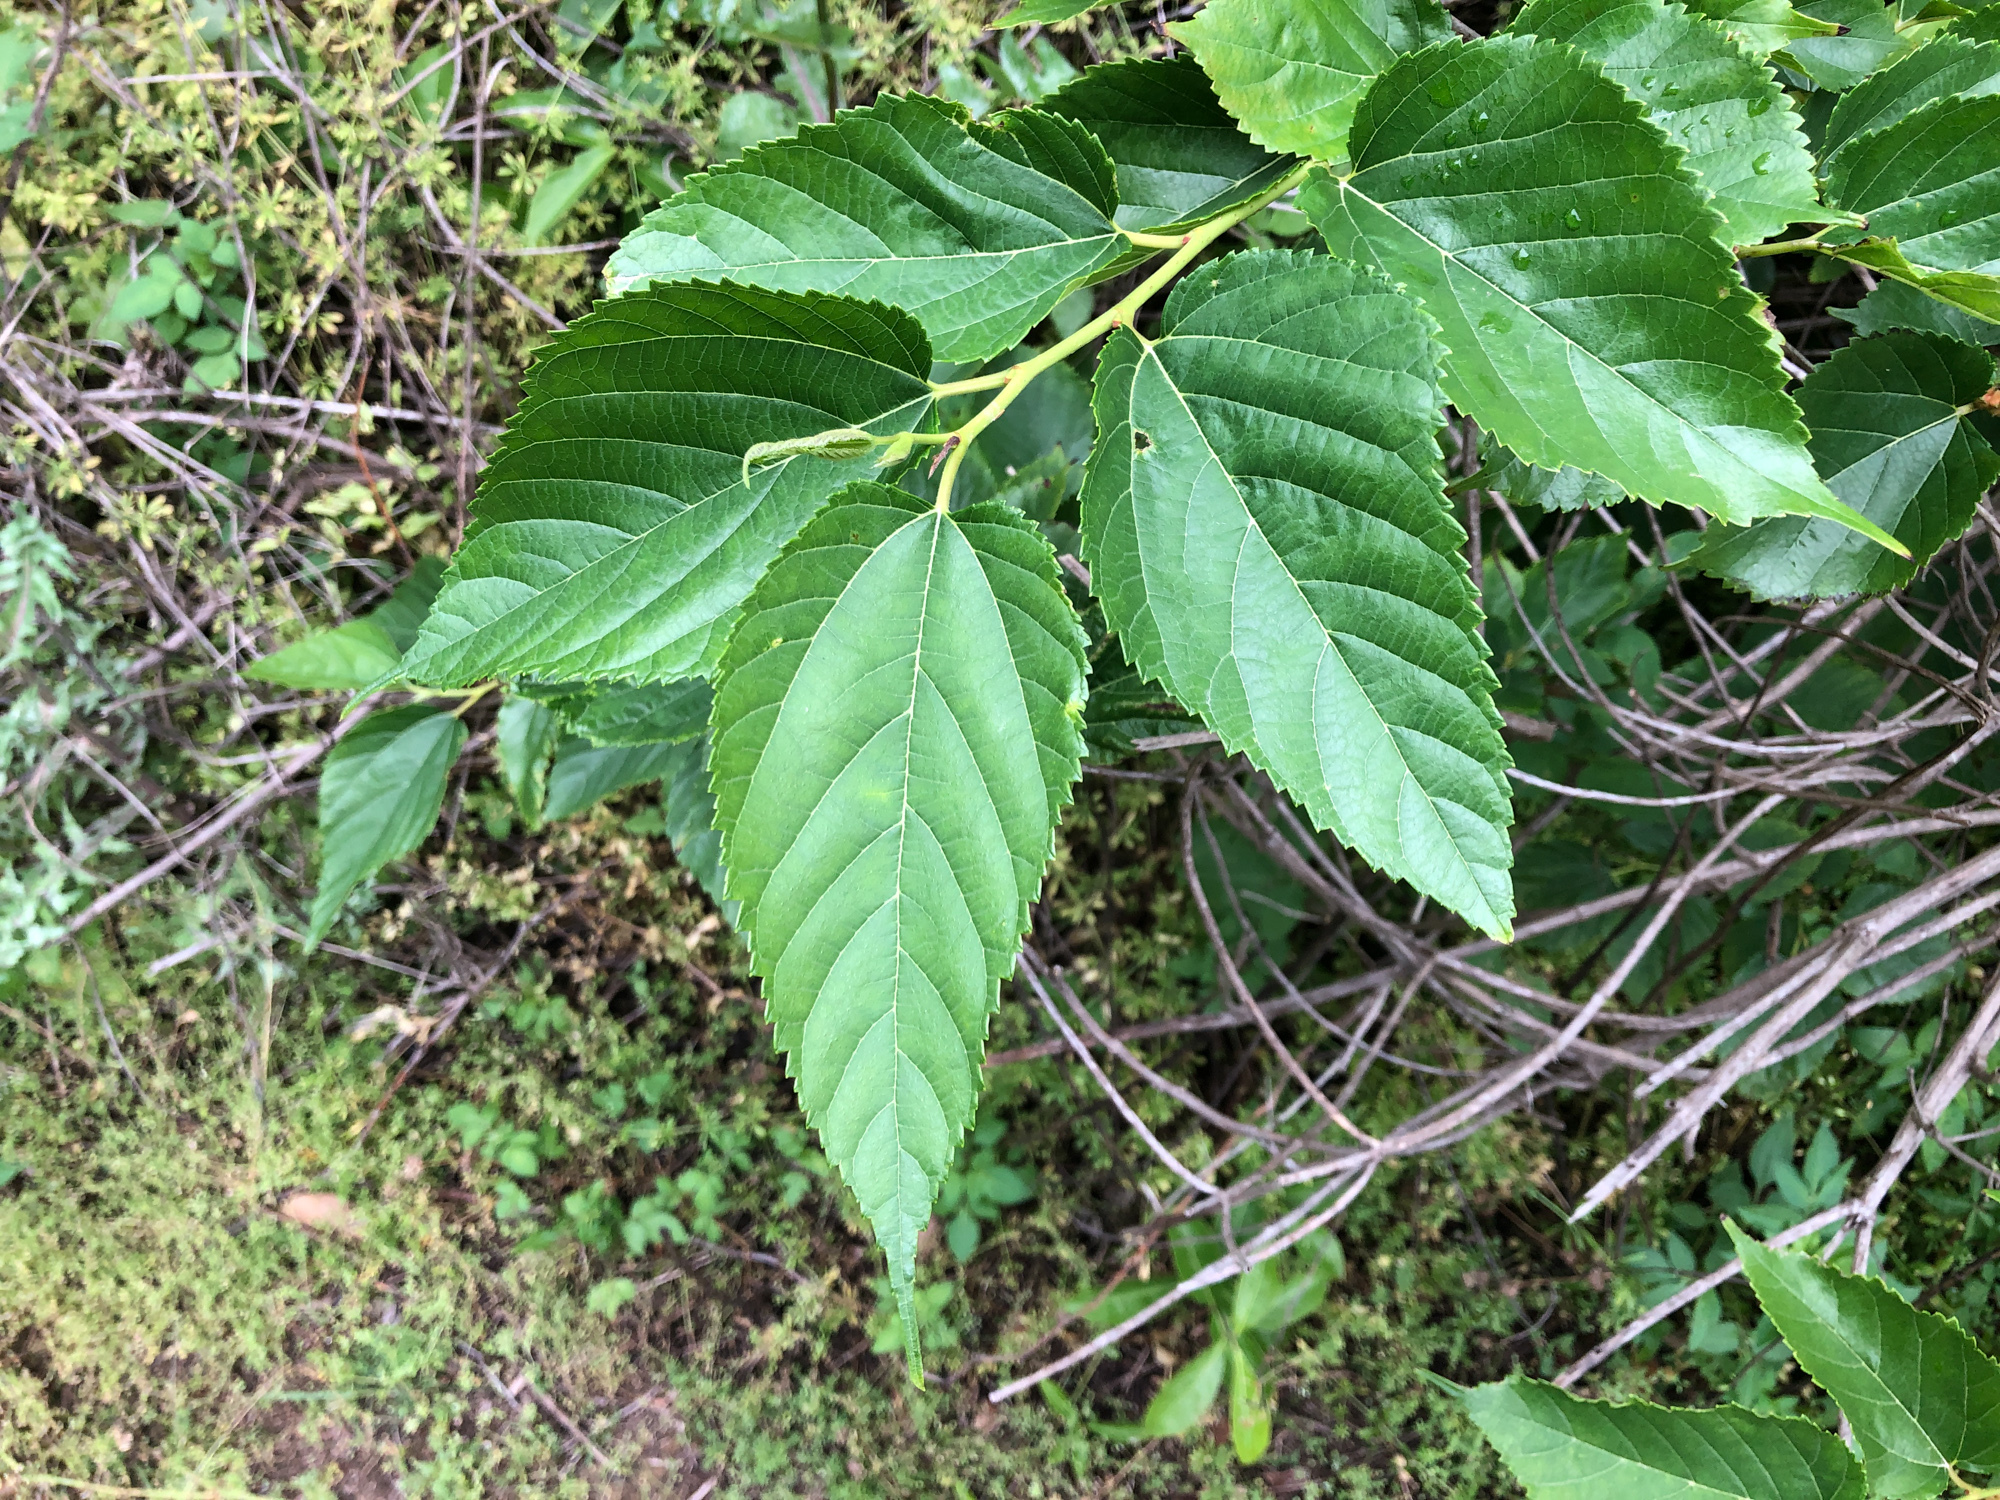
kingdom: Plantae
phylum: Tracheophyta
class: Magnoliopsida
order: Rosales
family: Moraceae
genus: Morus
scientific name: Morus indica
